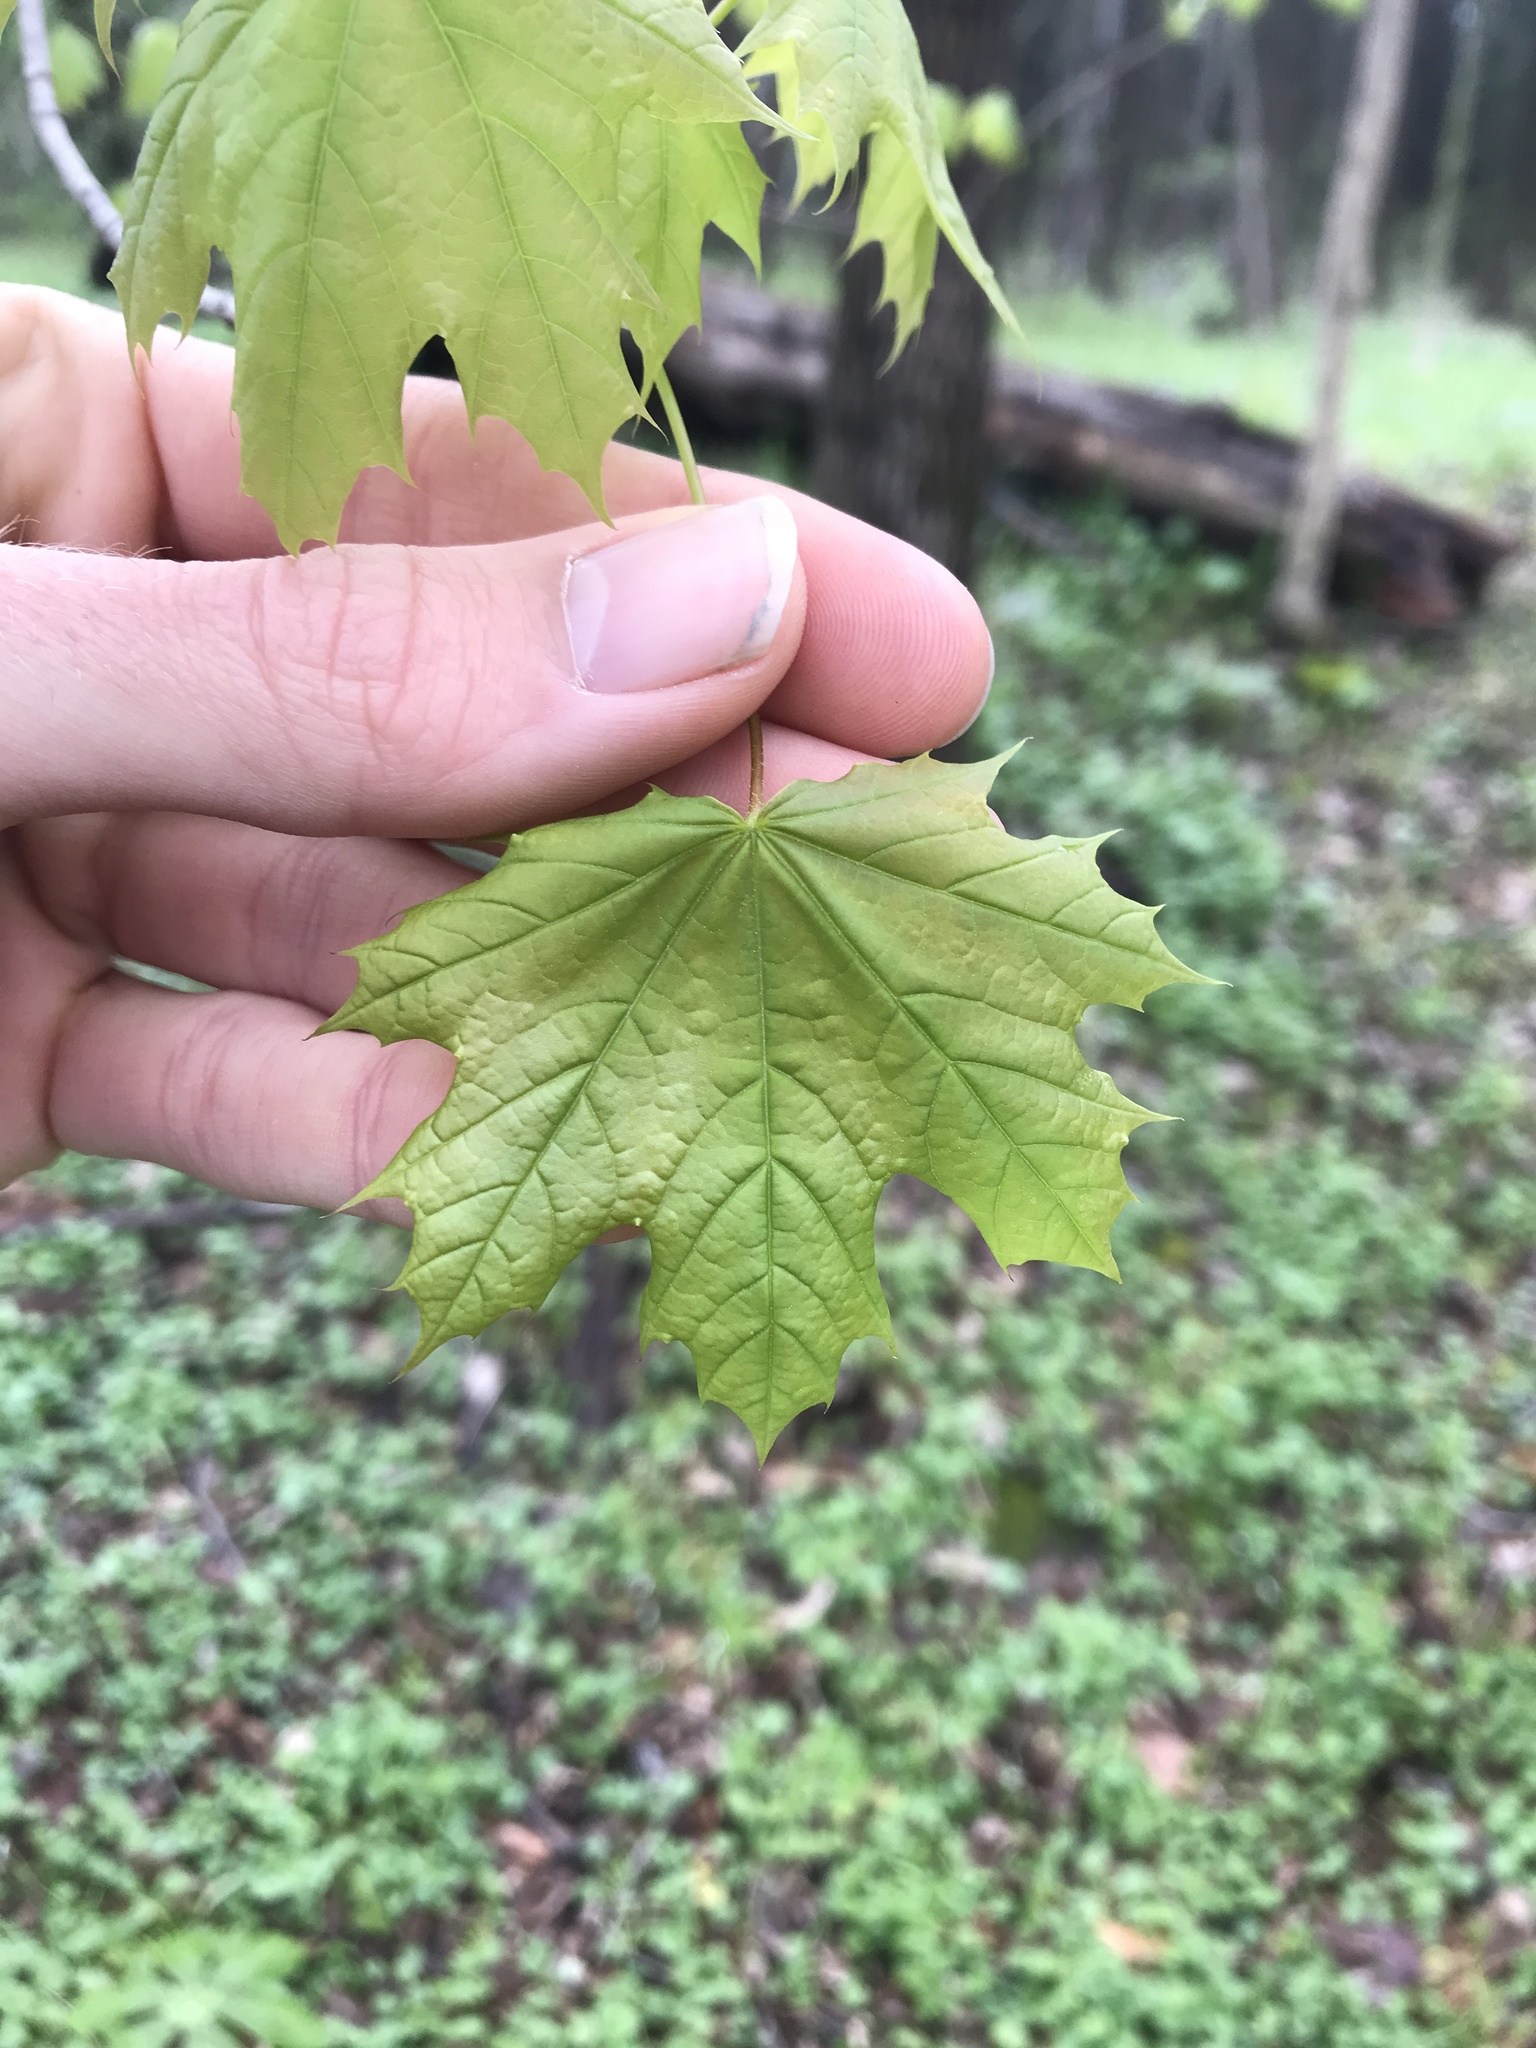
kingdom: Plantae
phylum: Tracheophyta
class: Magnoliopsida
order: Sapindales
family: Sapindaceae
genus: Acer
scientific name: Acer platanoides
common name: Norway maple
